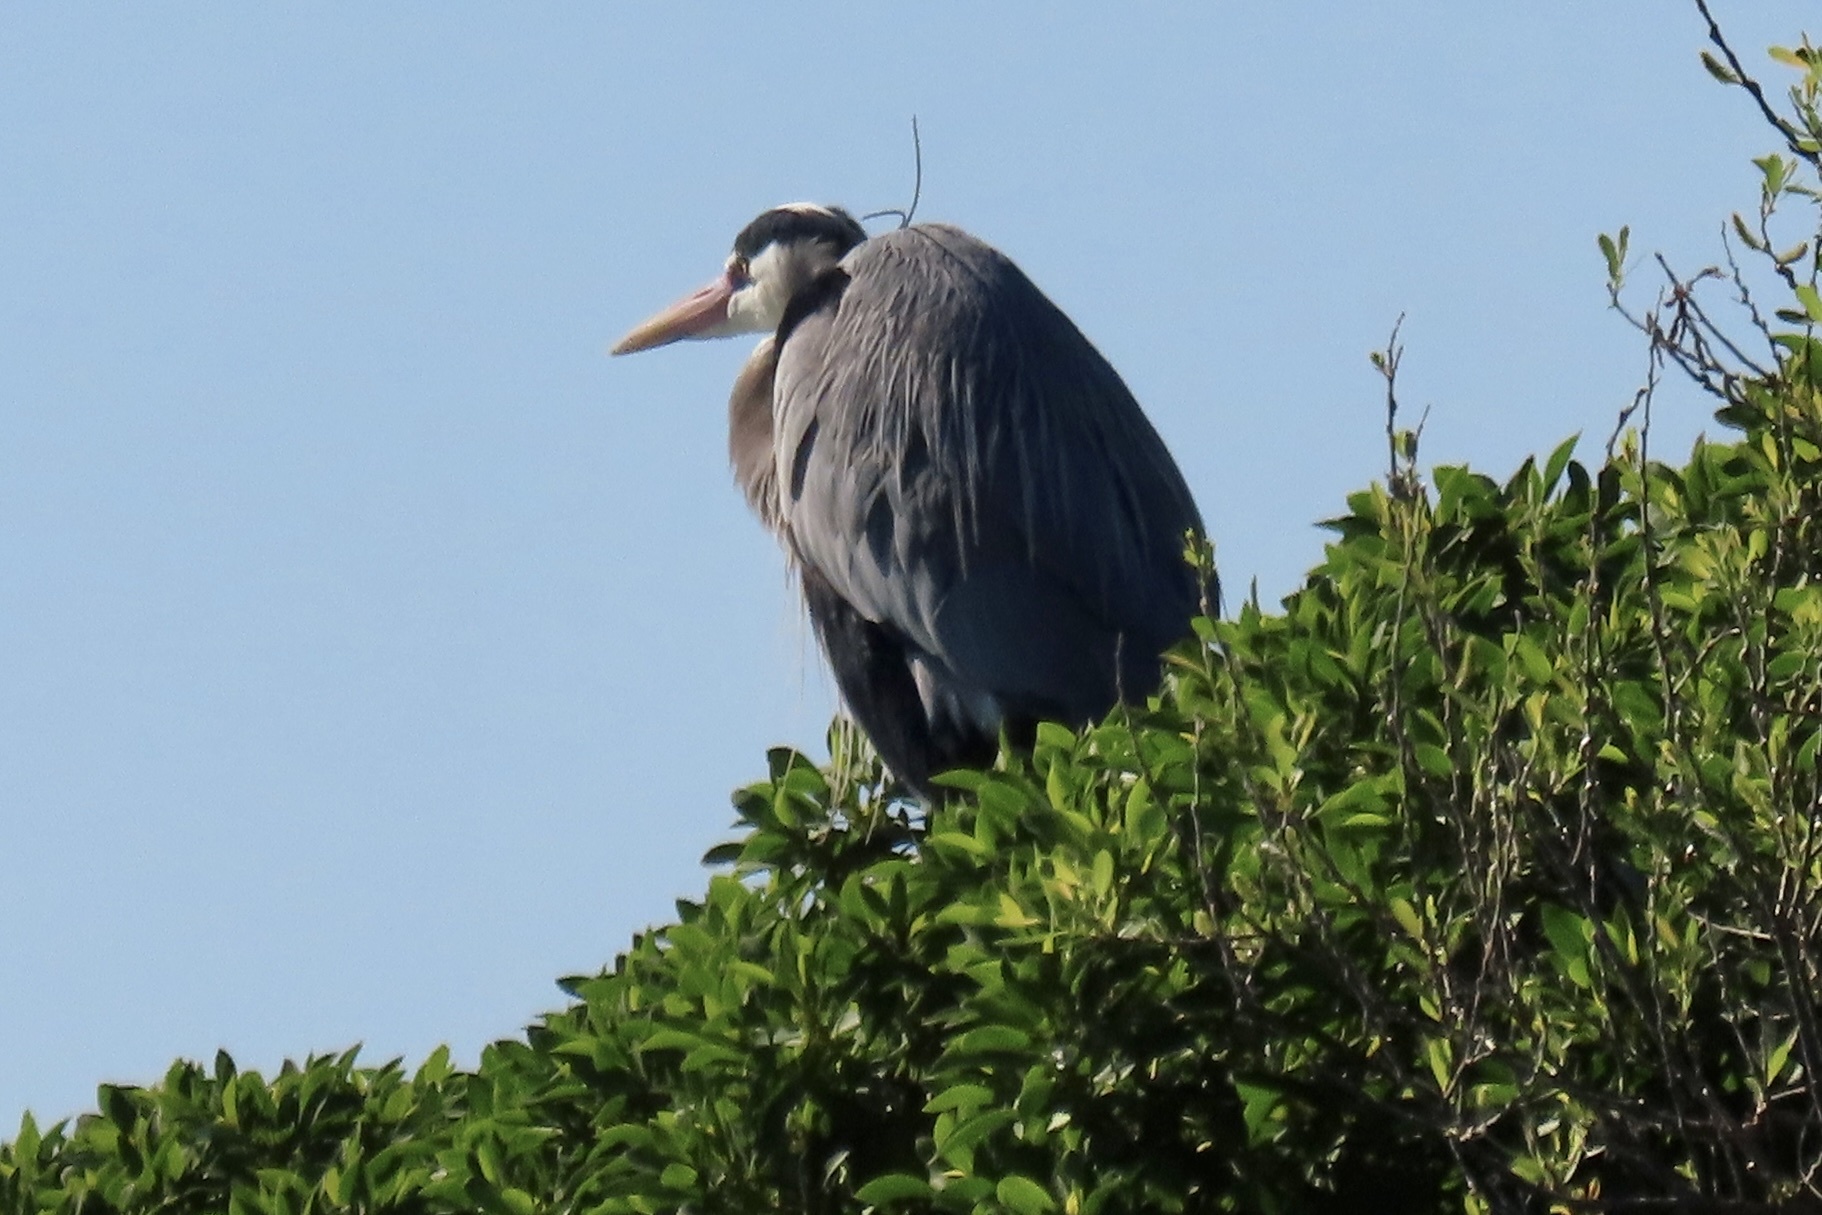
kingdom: Animalia
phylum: Chordata
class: Aves
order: Pelecaniformes
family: Ardeidae
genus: Ardea
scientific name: Ardea herodias
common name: Great blue heron
